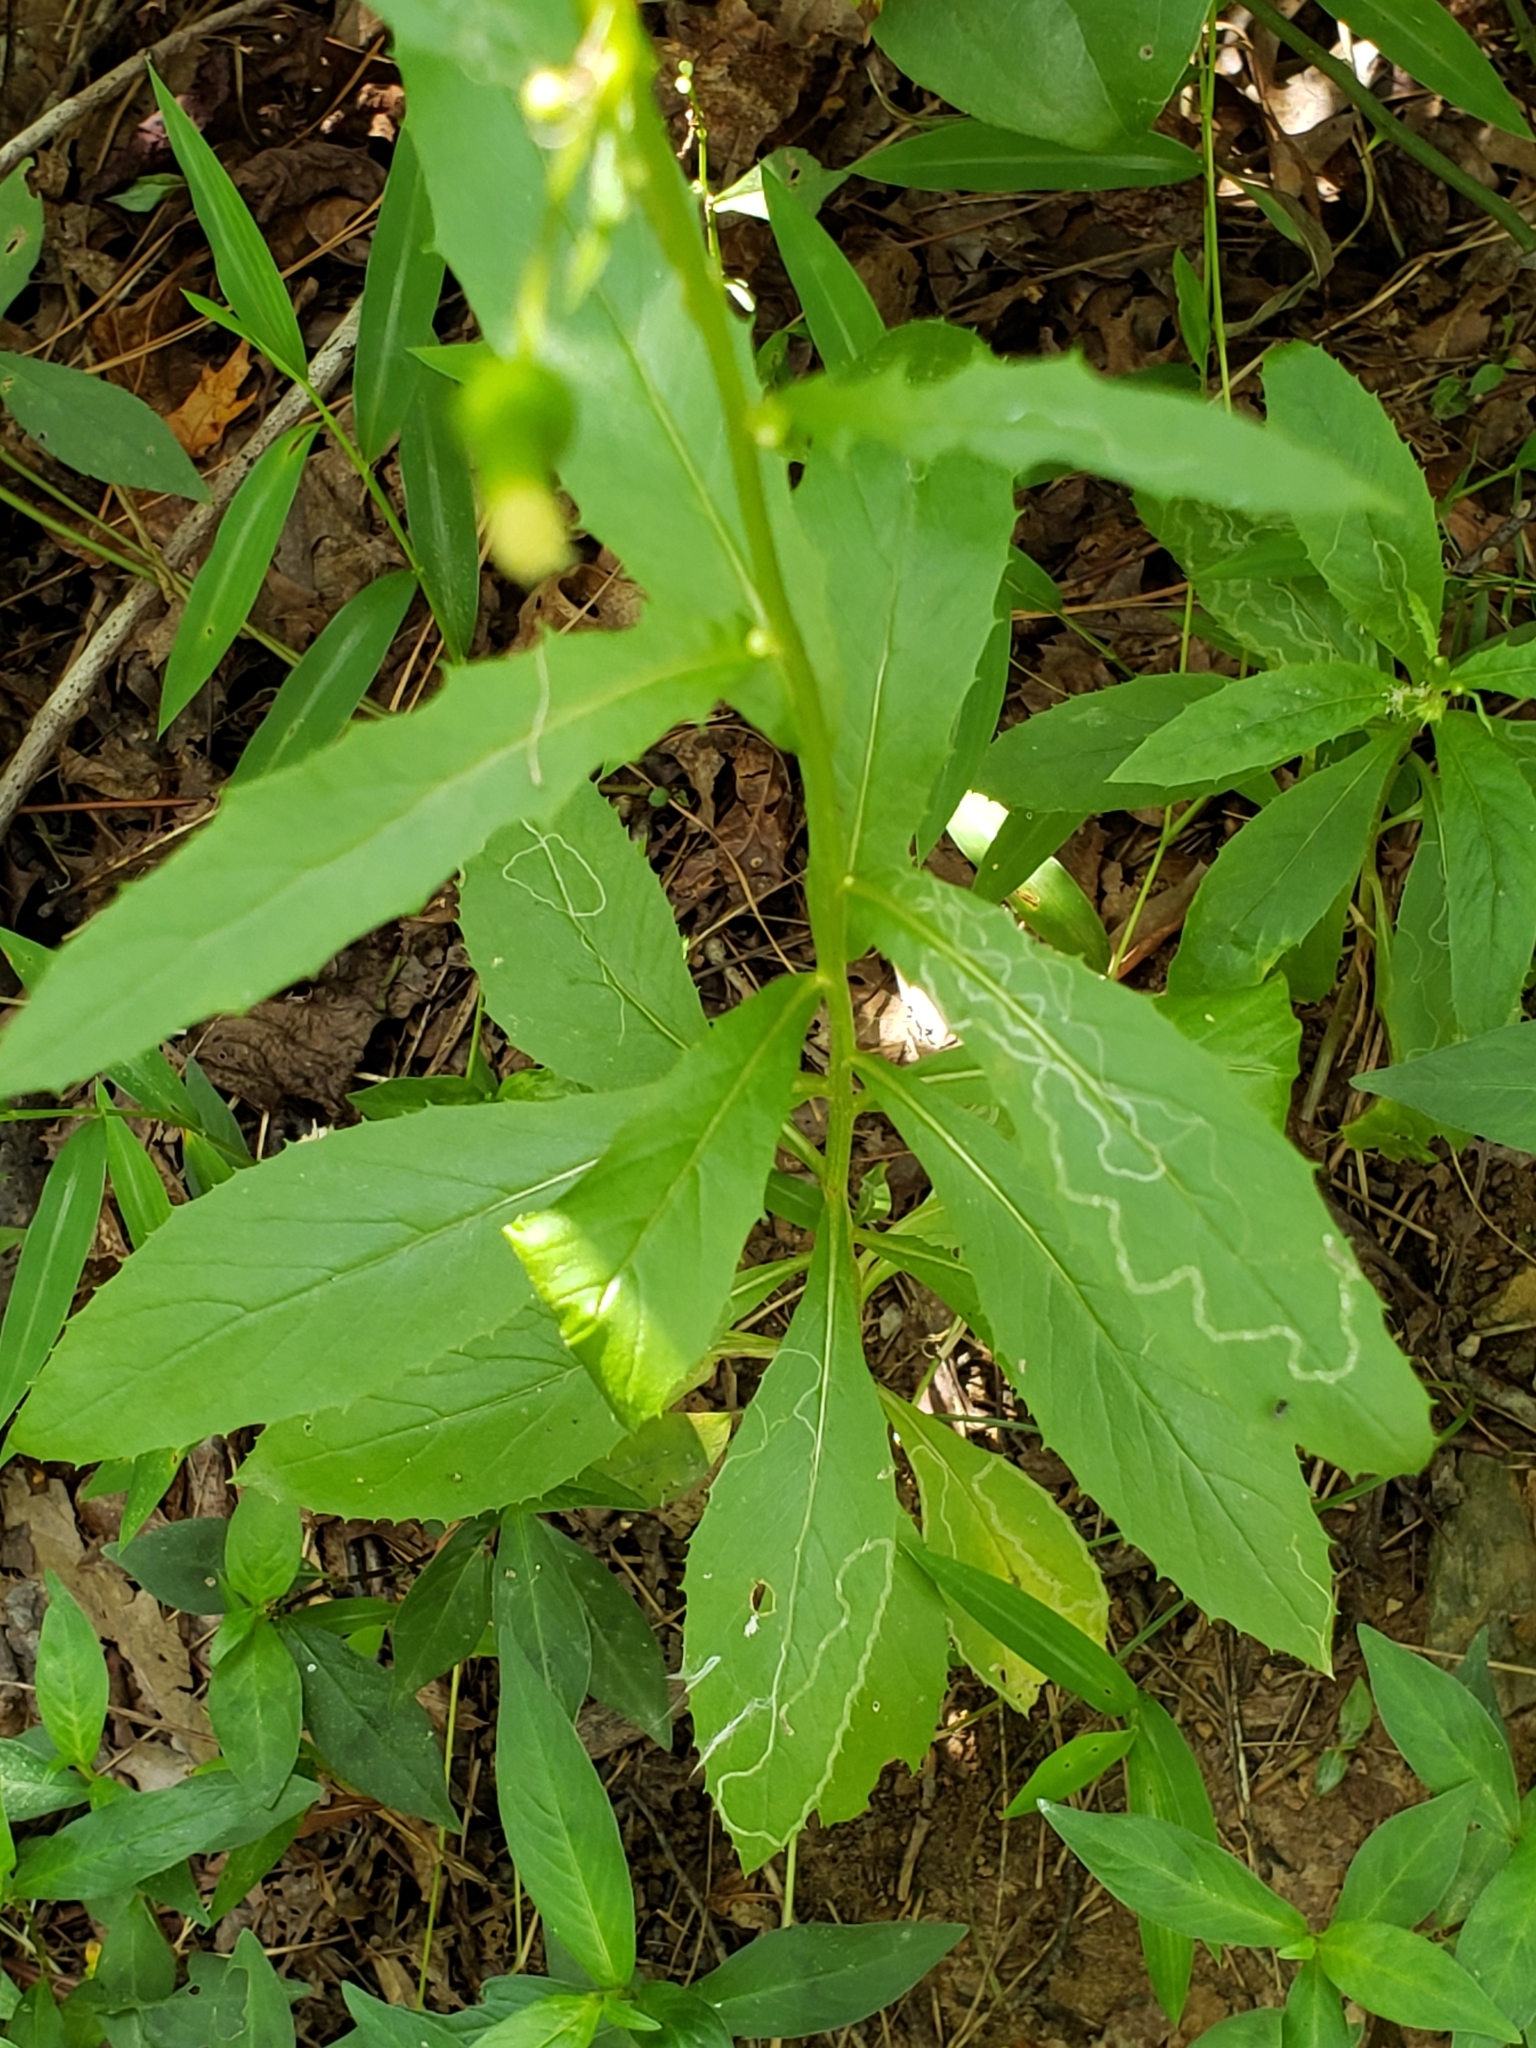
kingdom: Animalia
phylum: Arthropoda
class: Insecta
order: Lepidoptera
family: Gracillariidae
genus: Phyllocnistis
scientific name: Phyllocnistis insignis
